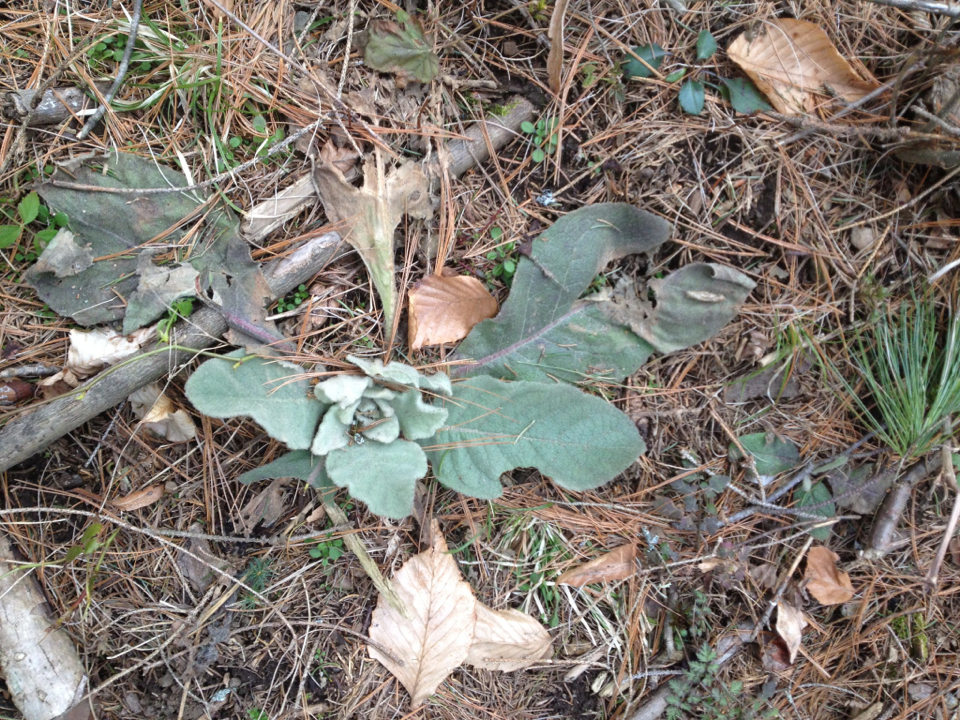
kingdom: Plantae
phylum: Tracheophyta
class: Magnoliopsida
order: Lamiales
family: Scrophulariaceae
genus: Verbascum
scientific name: Verbascum thapsus
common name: Common mullein
